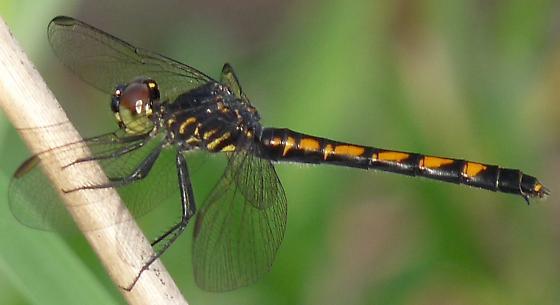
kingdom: Animalia
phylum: Arthropoda
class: Insecta
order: Odonata
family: Libellulidae
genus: Erythrodiplax
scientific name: Erythrodiplax berenice
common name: Seaside dragonlet
